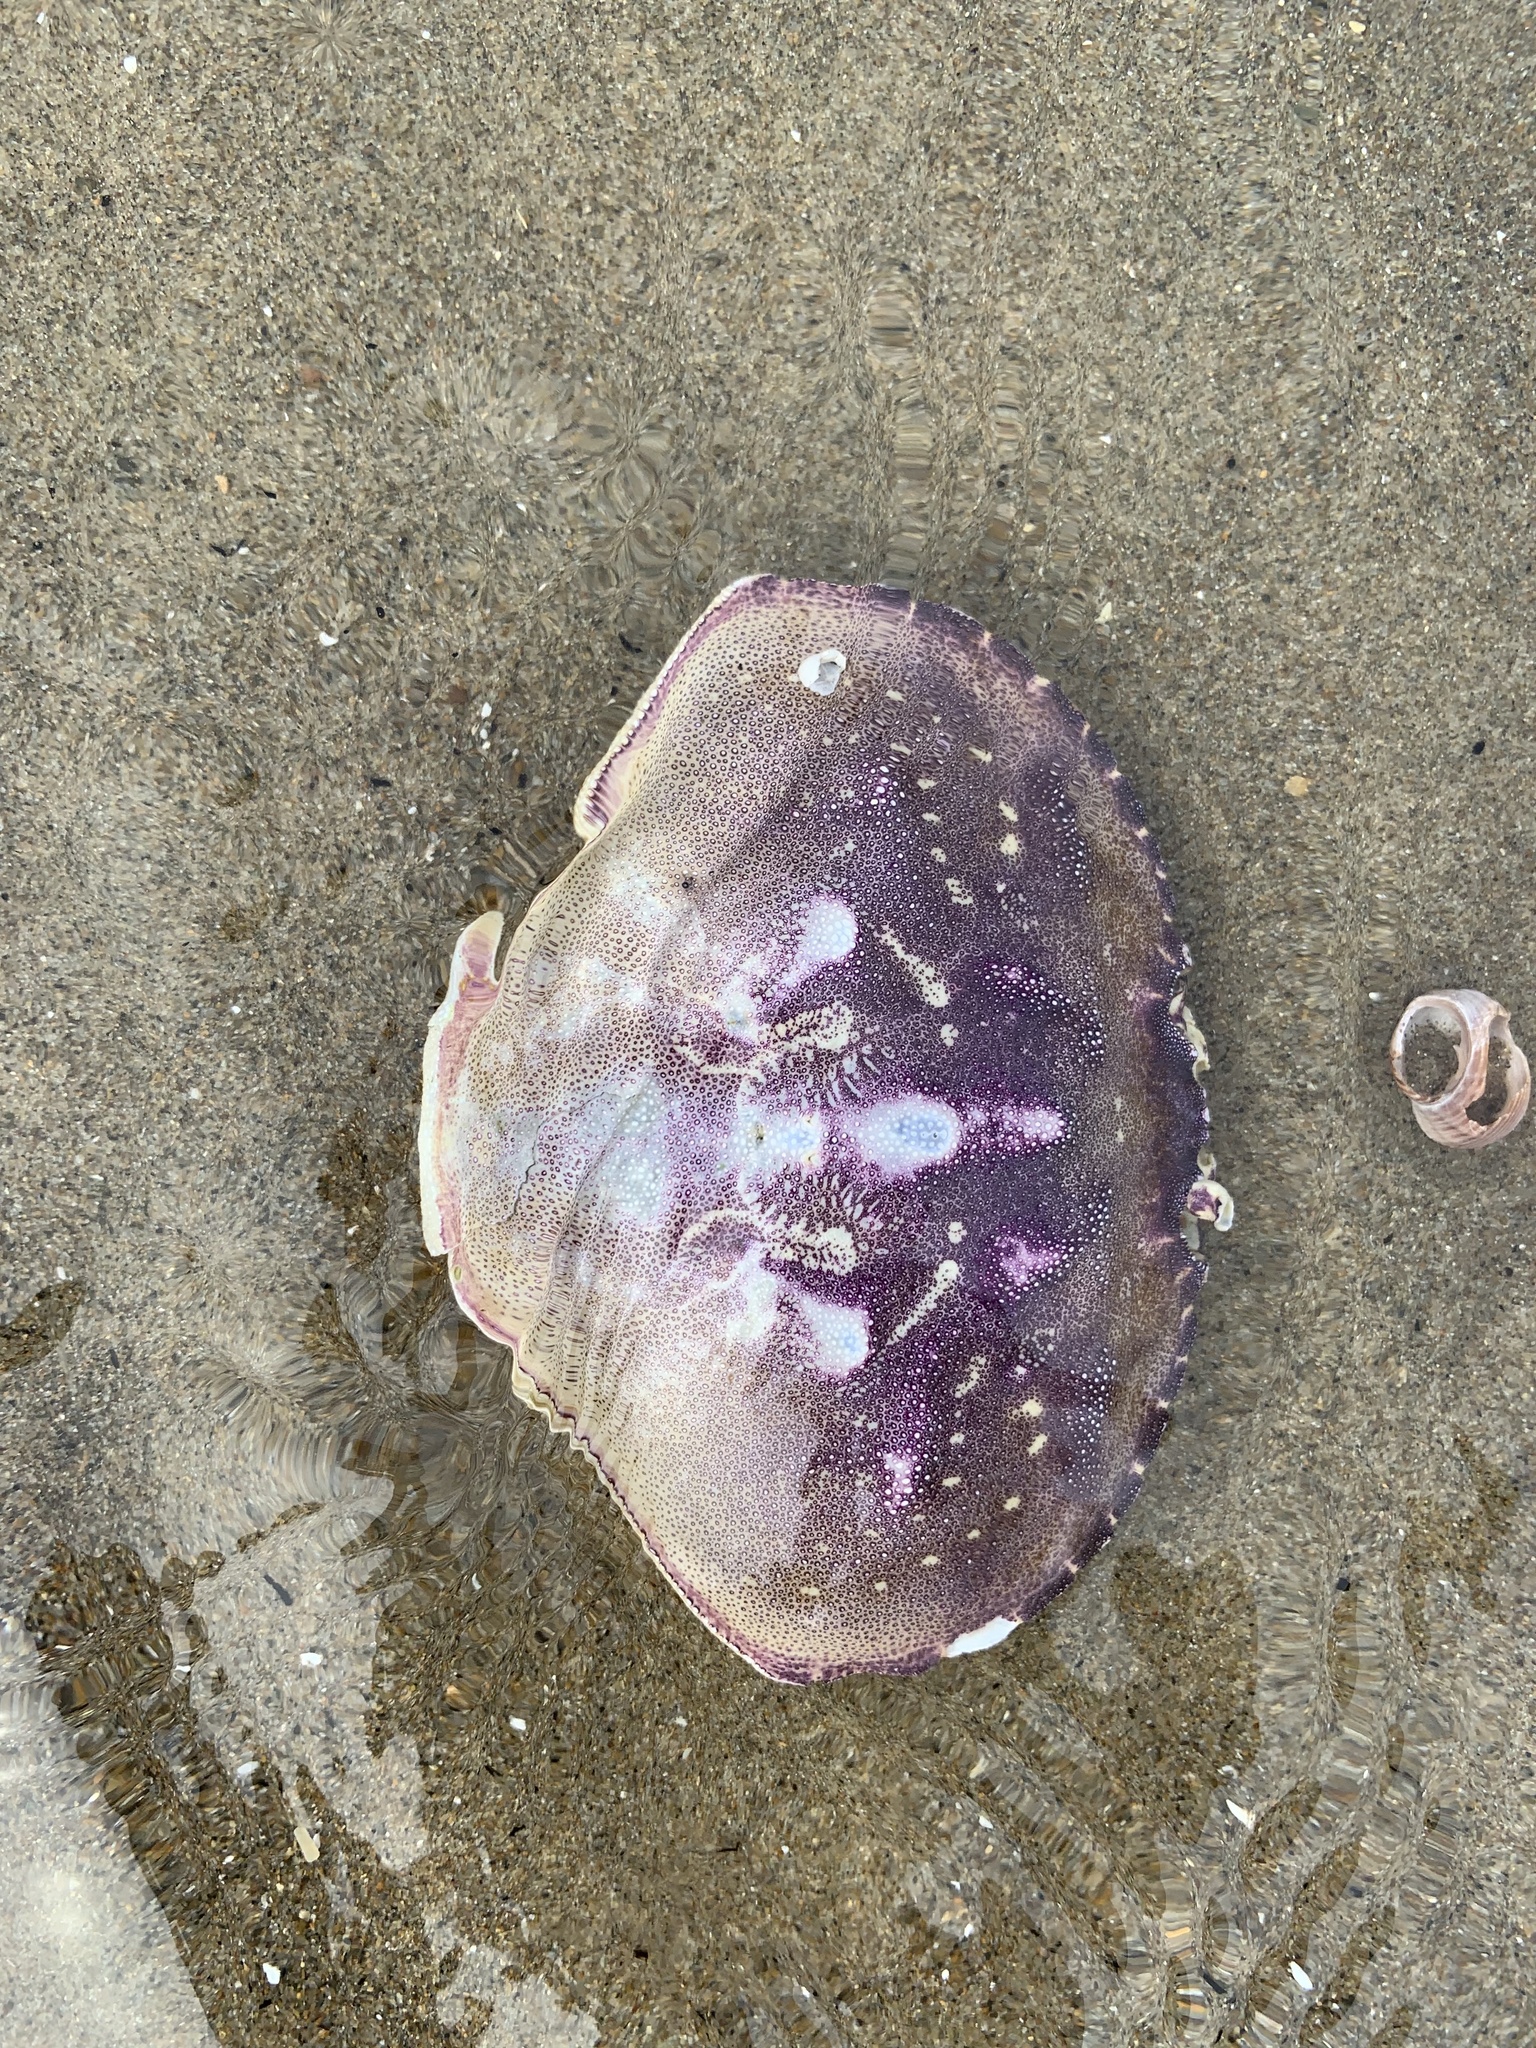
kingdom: Animalia
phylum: Arthropoda
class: Malacostraca
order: Decapoda
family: Cancridae
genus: Metacarcinus
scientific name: Metacarcinus magister
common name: Californian crab
